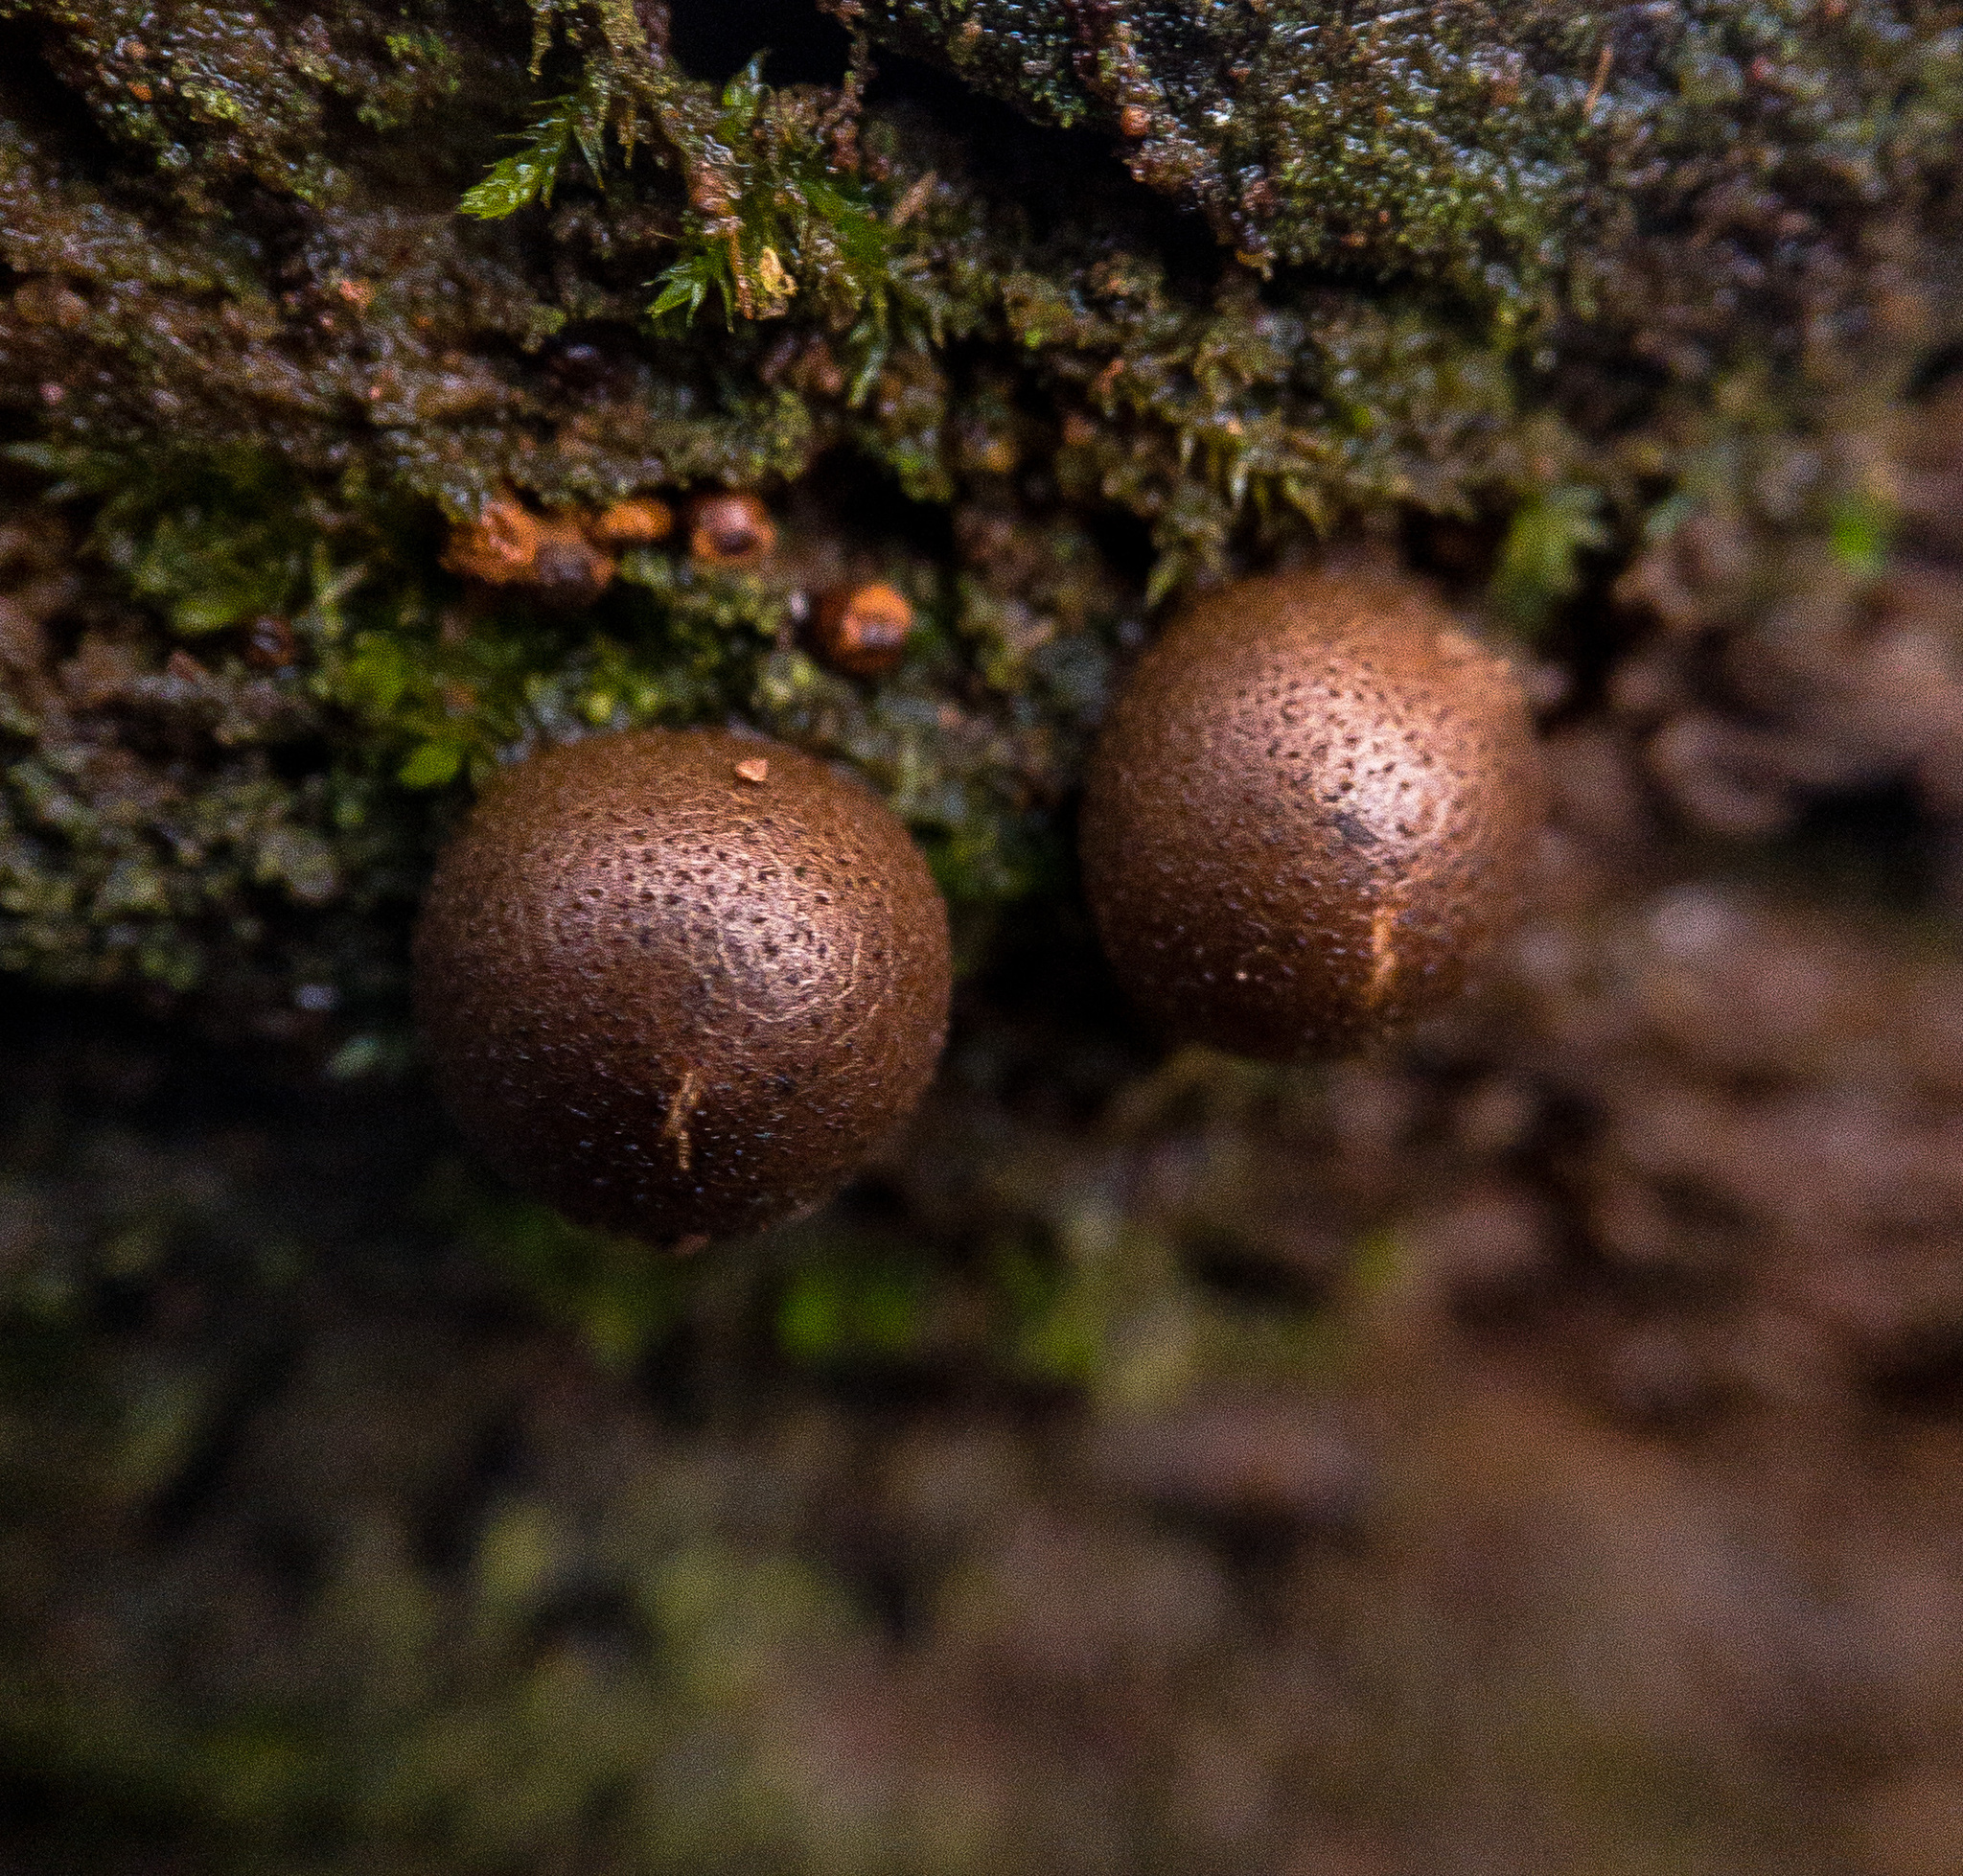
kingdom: Protozoa
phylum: Mycetozoa
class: Myxomycetes
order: Cribrariales
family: Tubiferaceae
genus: Lycogala
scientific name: Lycogala epidendrum
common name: Wolf's milk
